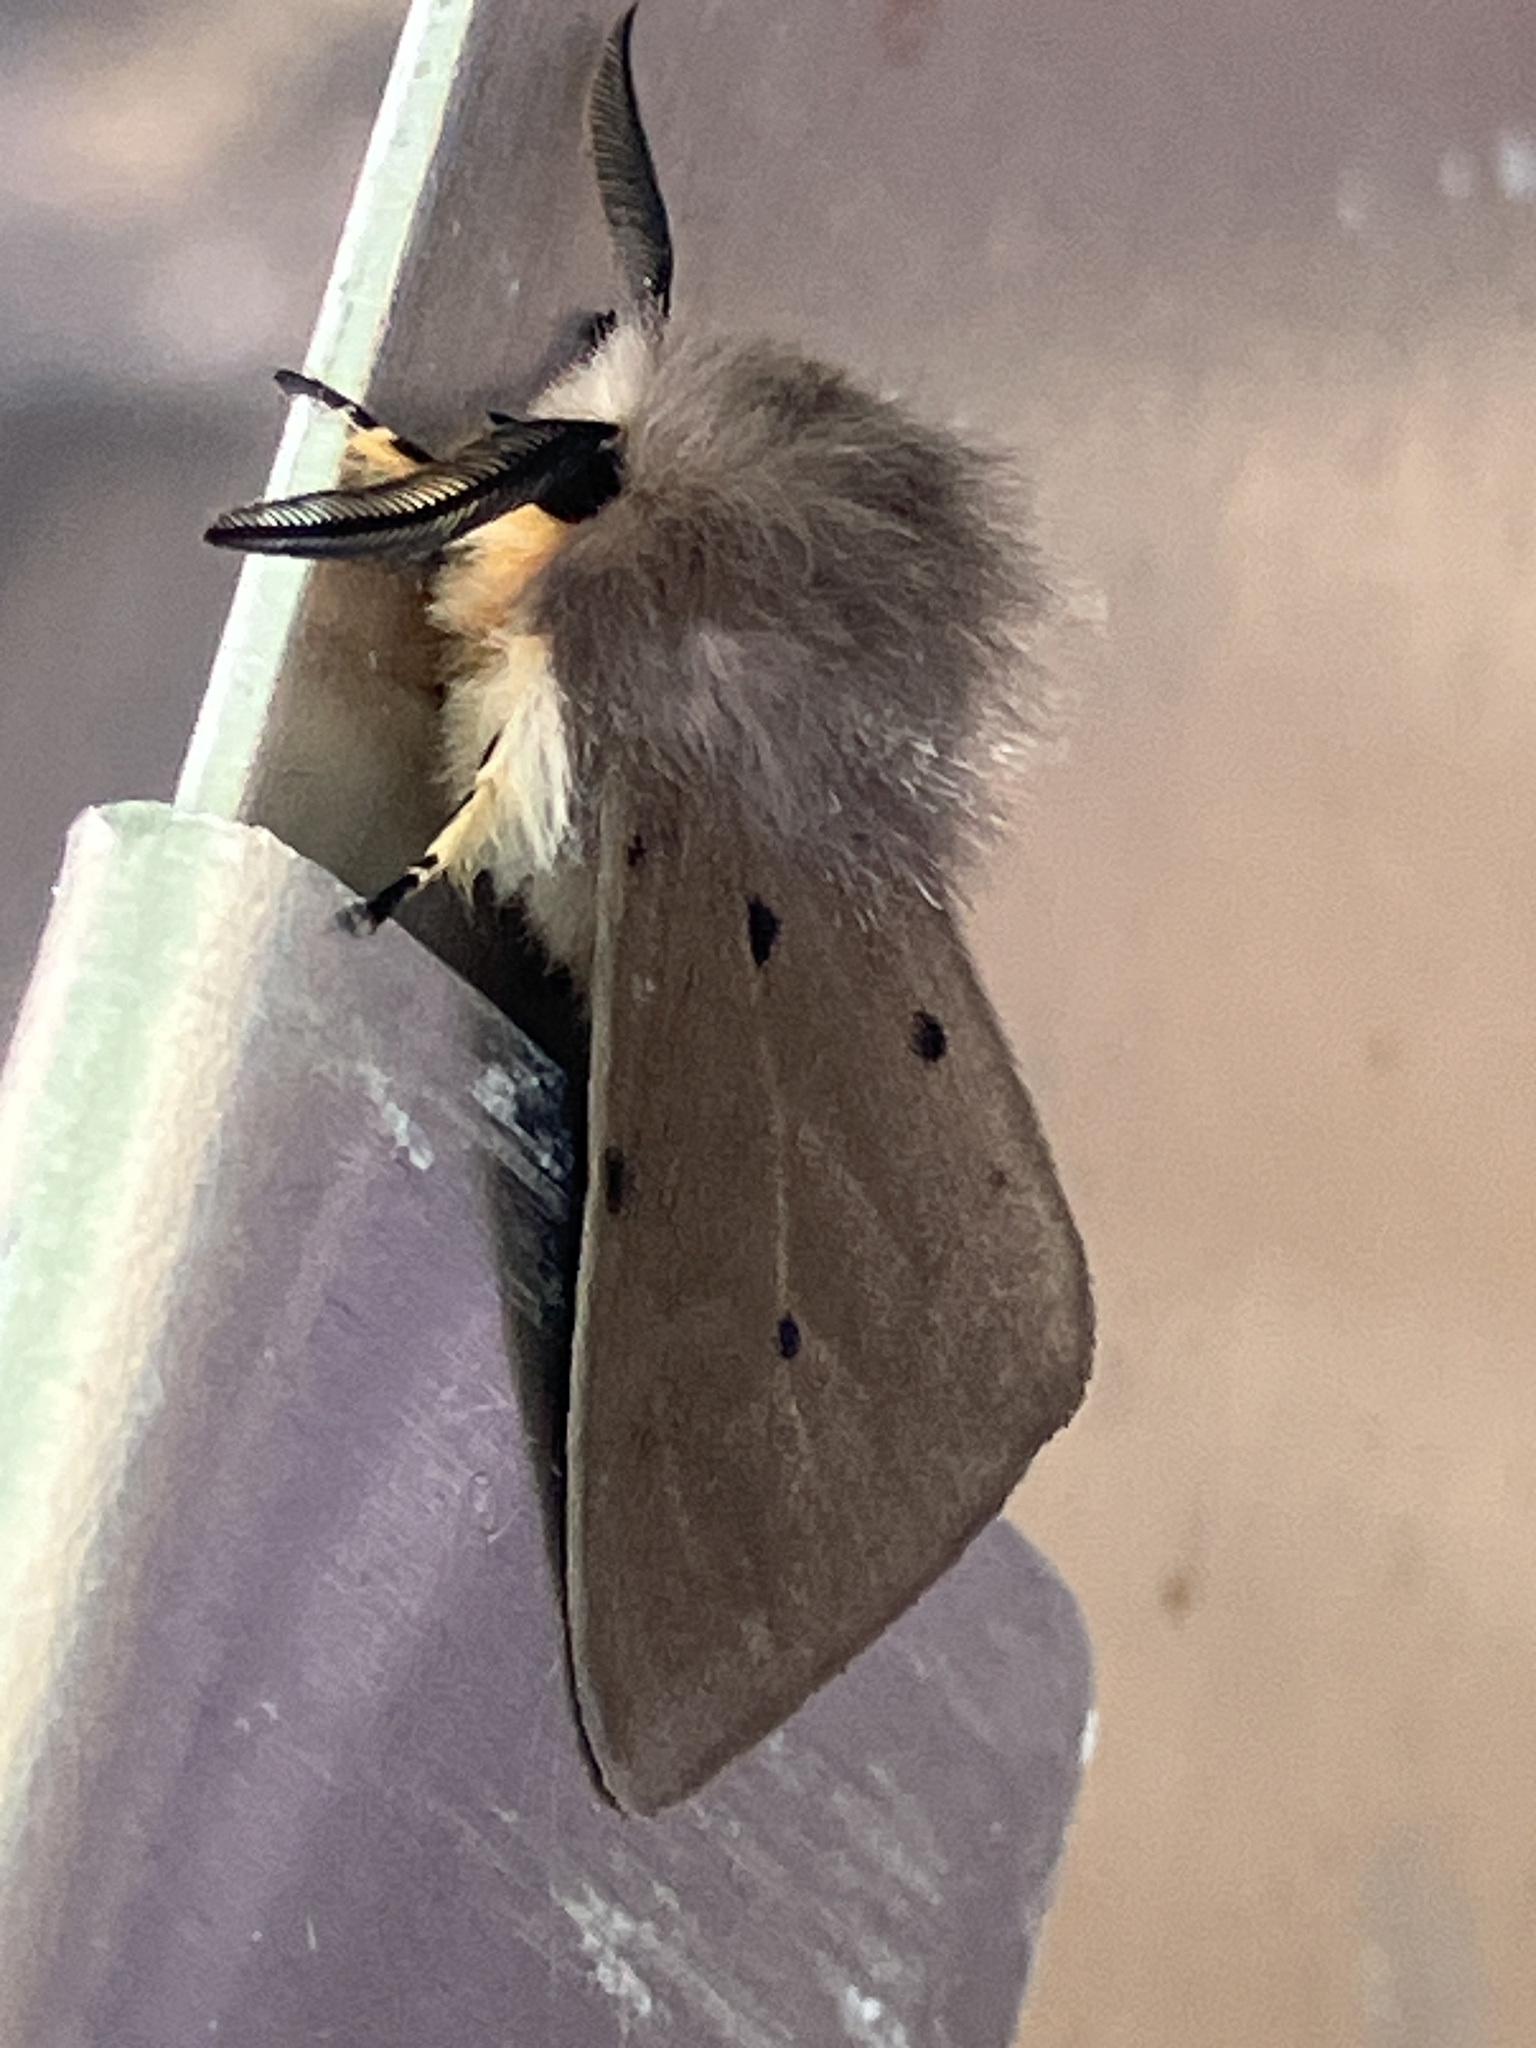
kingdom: Animalia
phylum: Arthropoda
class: Insecta
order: Lepidoptera
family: Erebidae
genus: Diaphora
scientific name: Diaphora mendica
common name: Muslin moth
